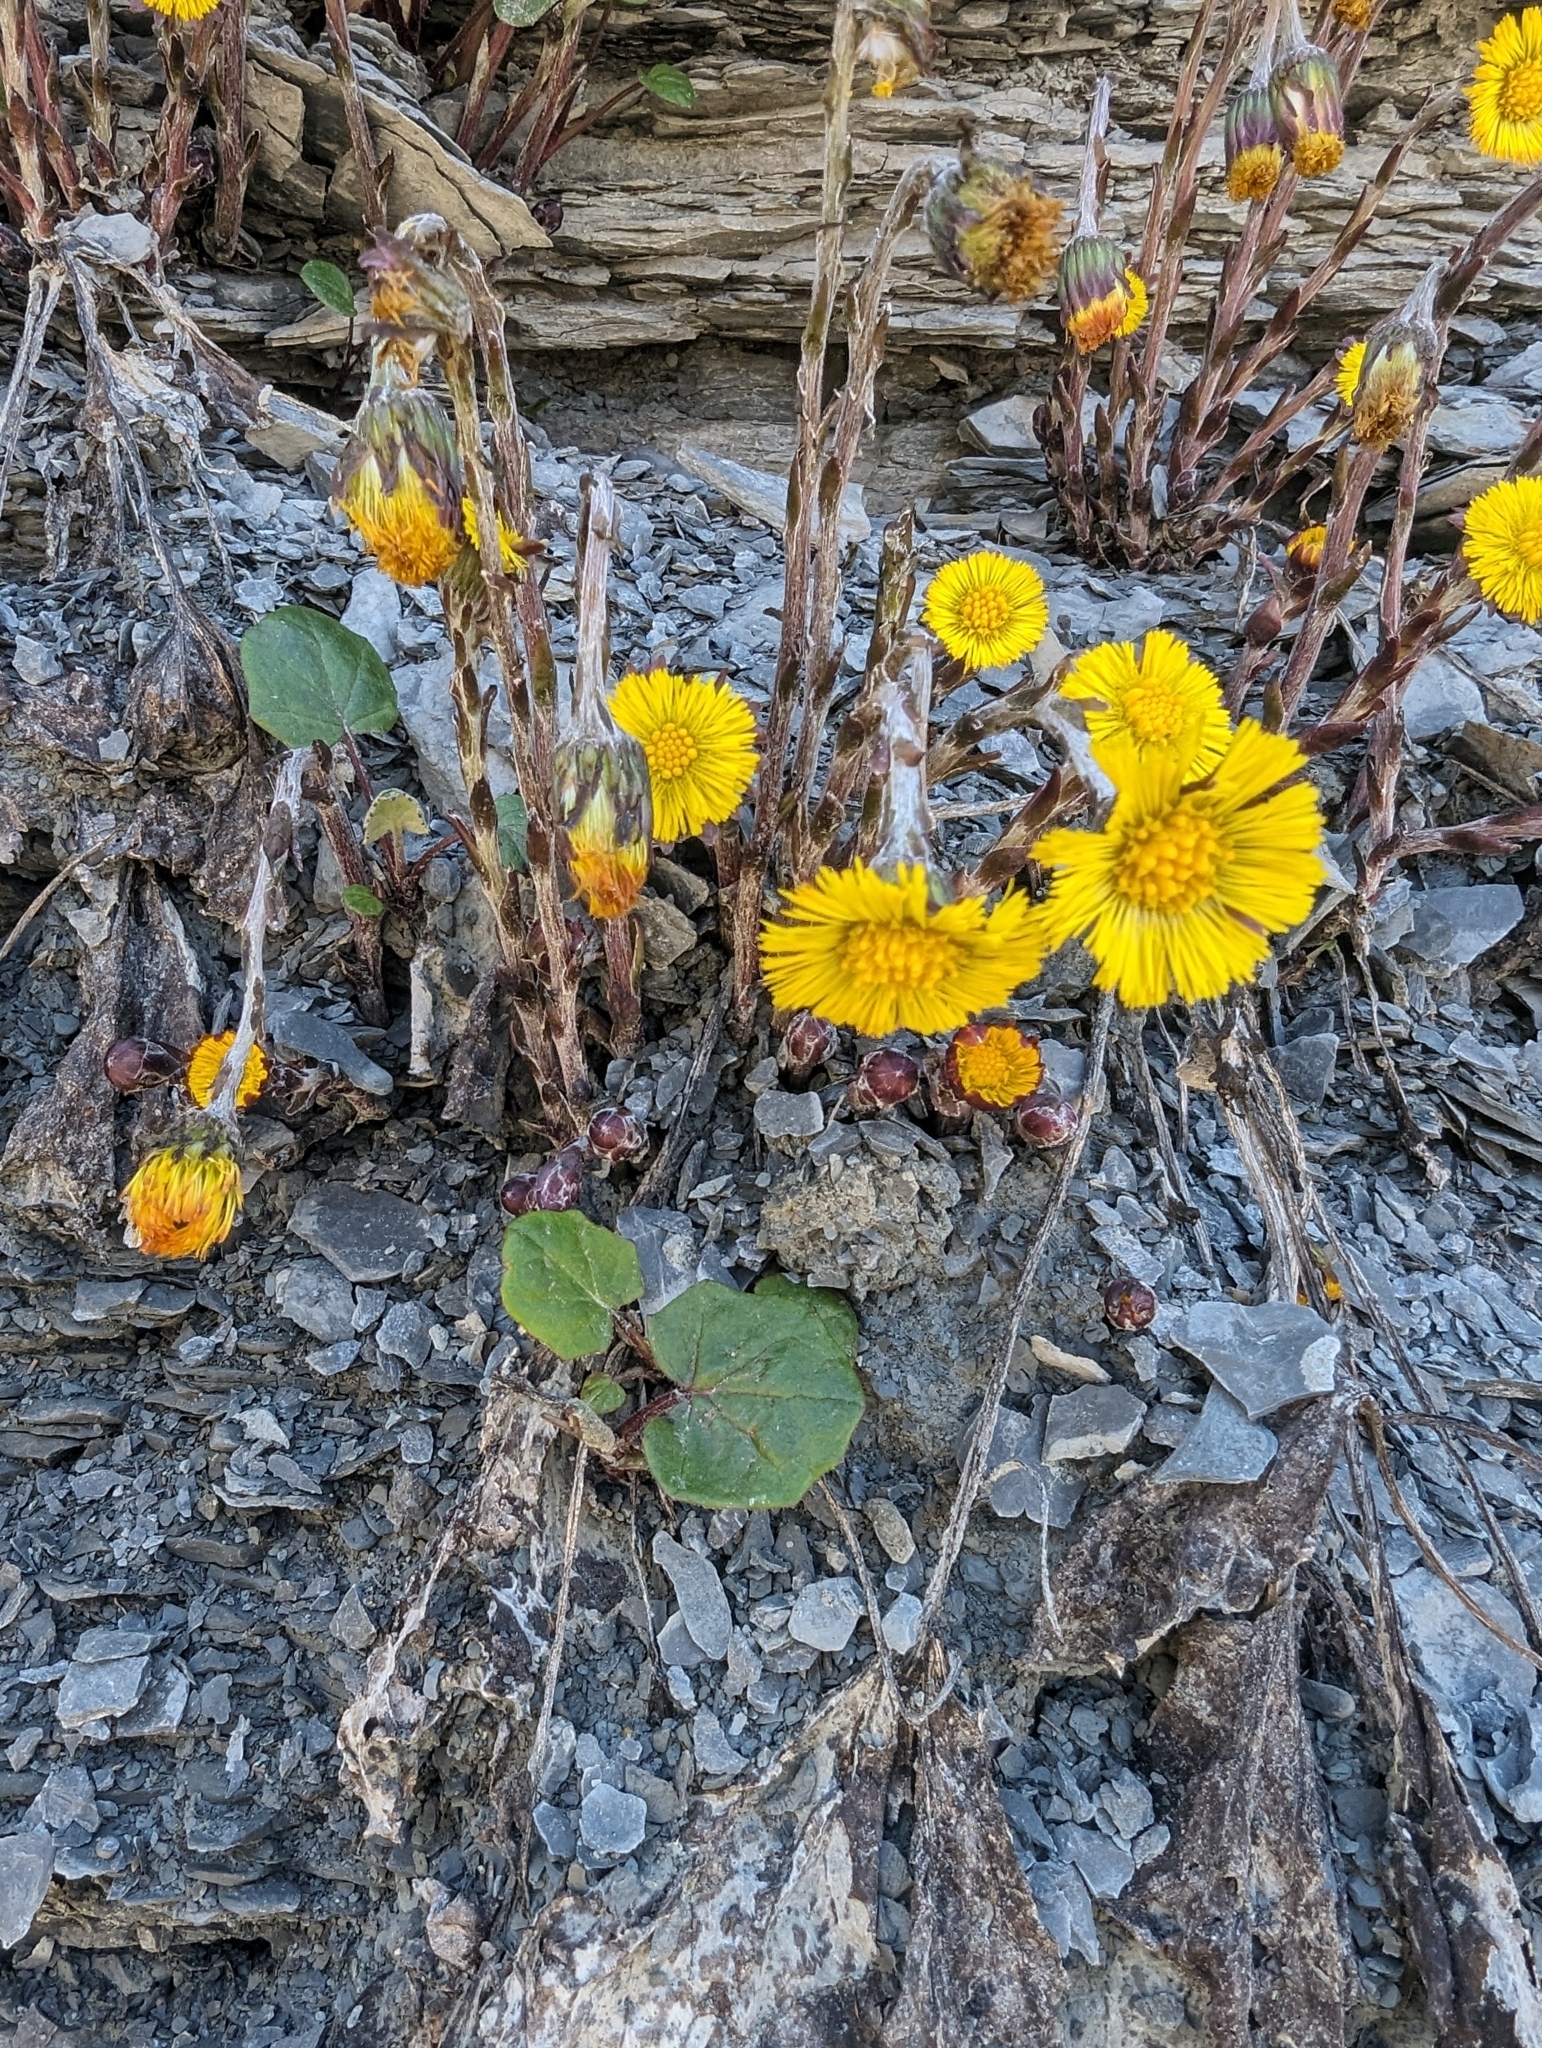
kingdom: Plantae
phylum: Tracheophyta
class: Magnoliopsida
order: Asterales
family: Asteraceae
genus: Tussilago
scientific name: Tussilago farfara
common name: Coltsfoot
